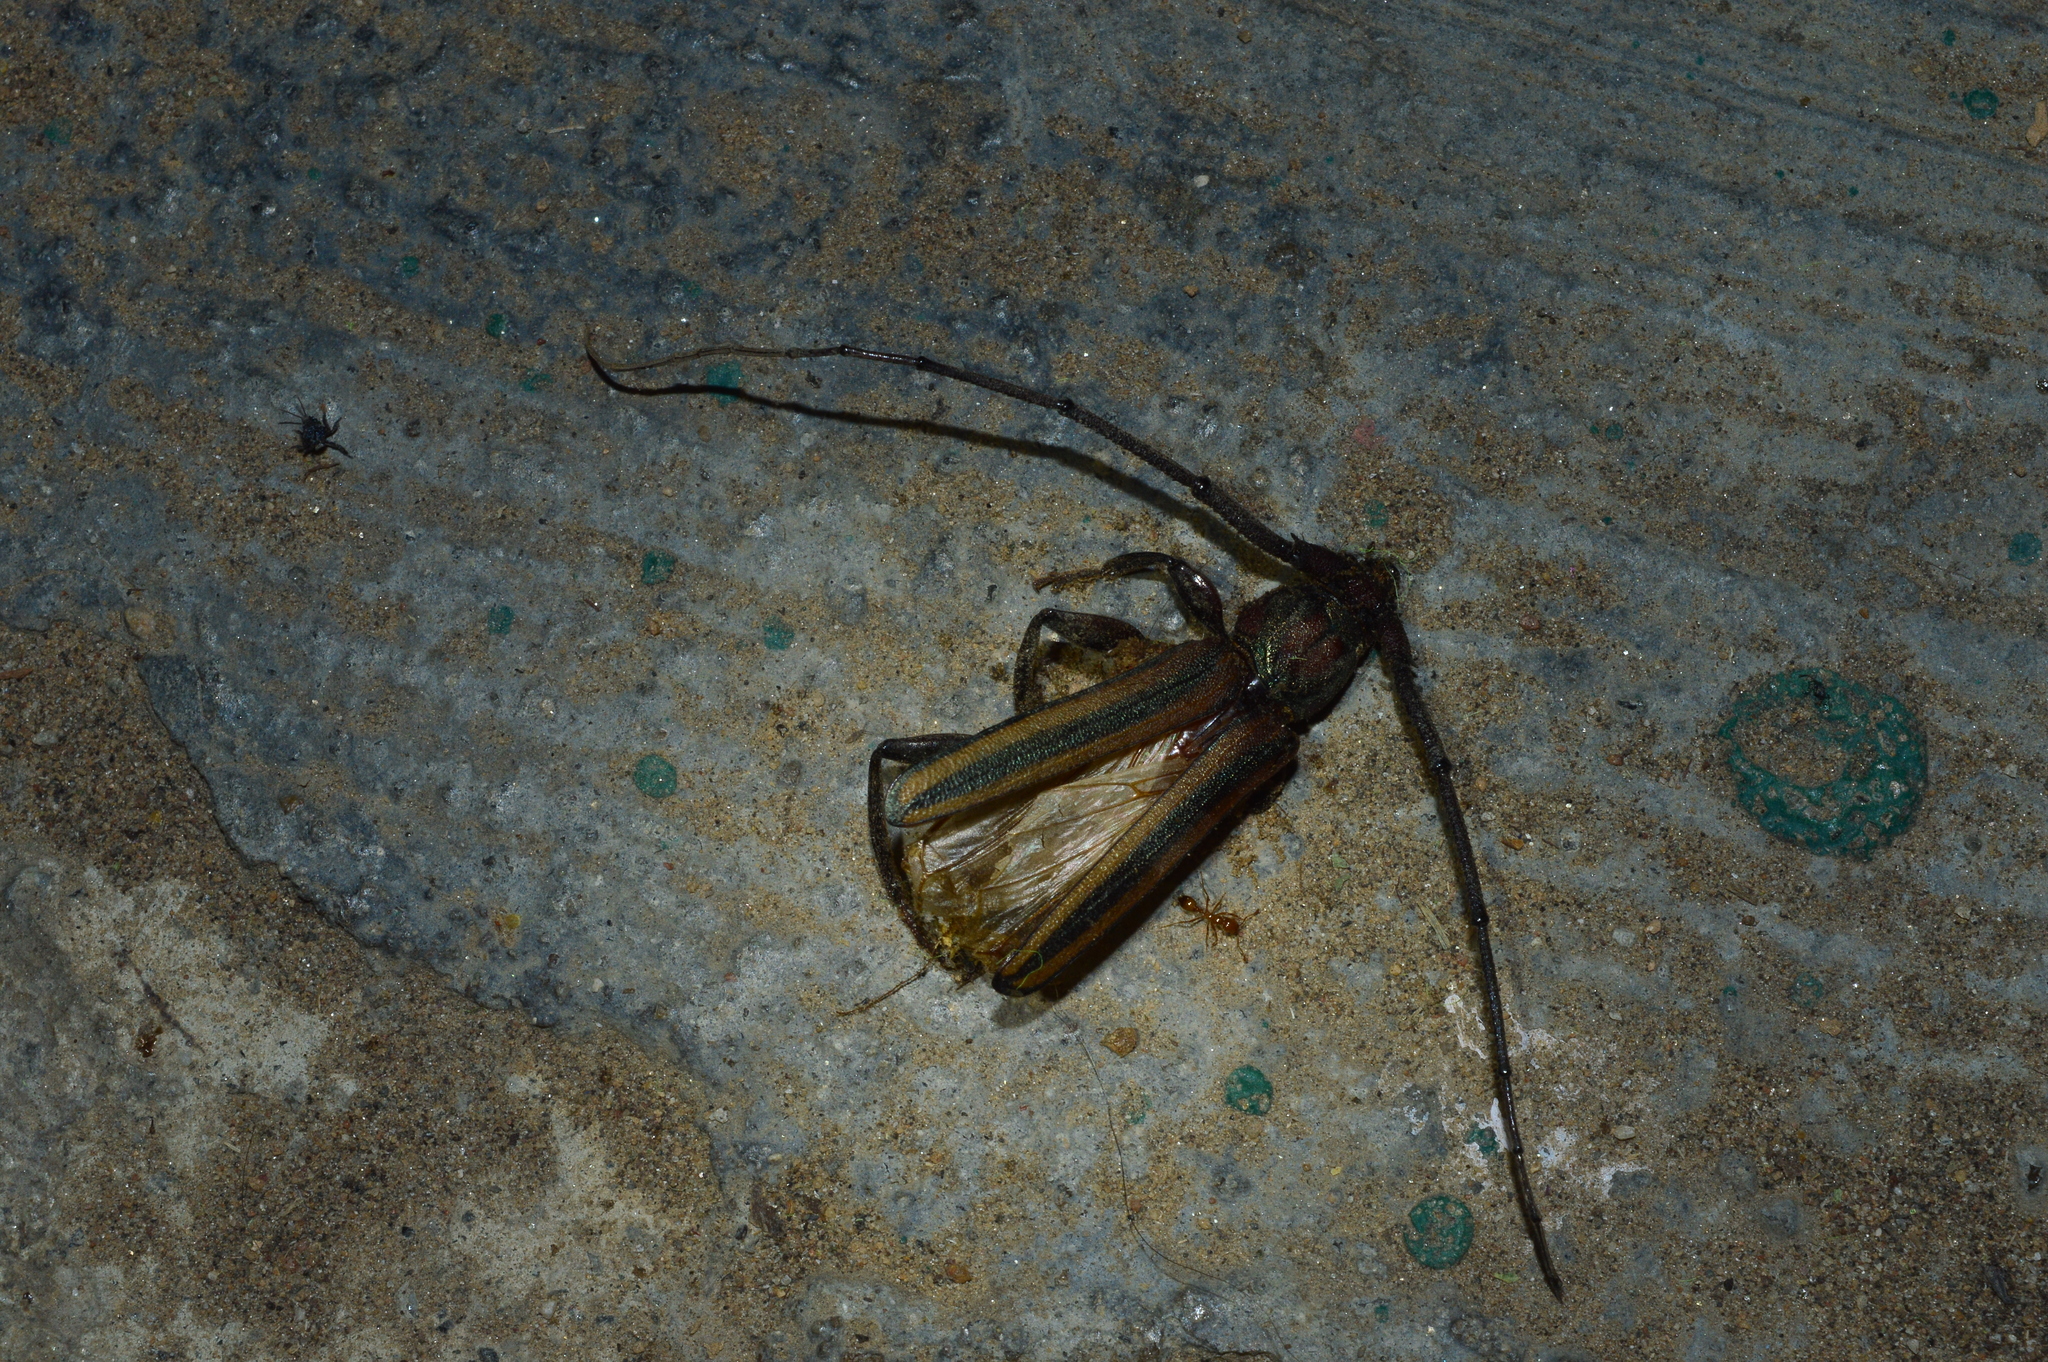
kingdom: Animalia
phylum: Arthropoda
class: Insecta
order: Coleoptera
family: Cerambycidae
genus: Xystrocera
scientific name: Xystrocera globosa
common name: Peach-tree longhorn
